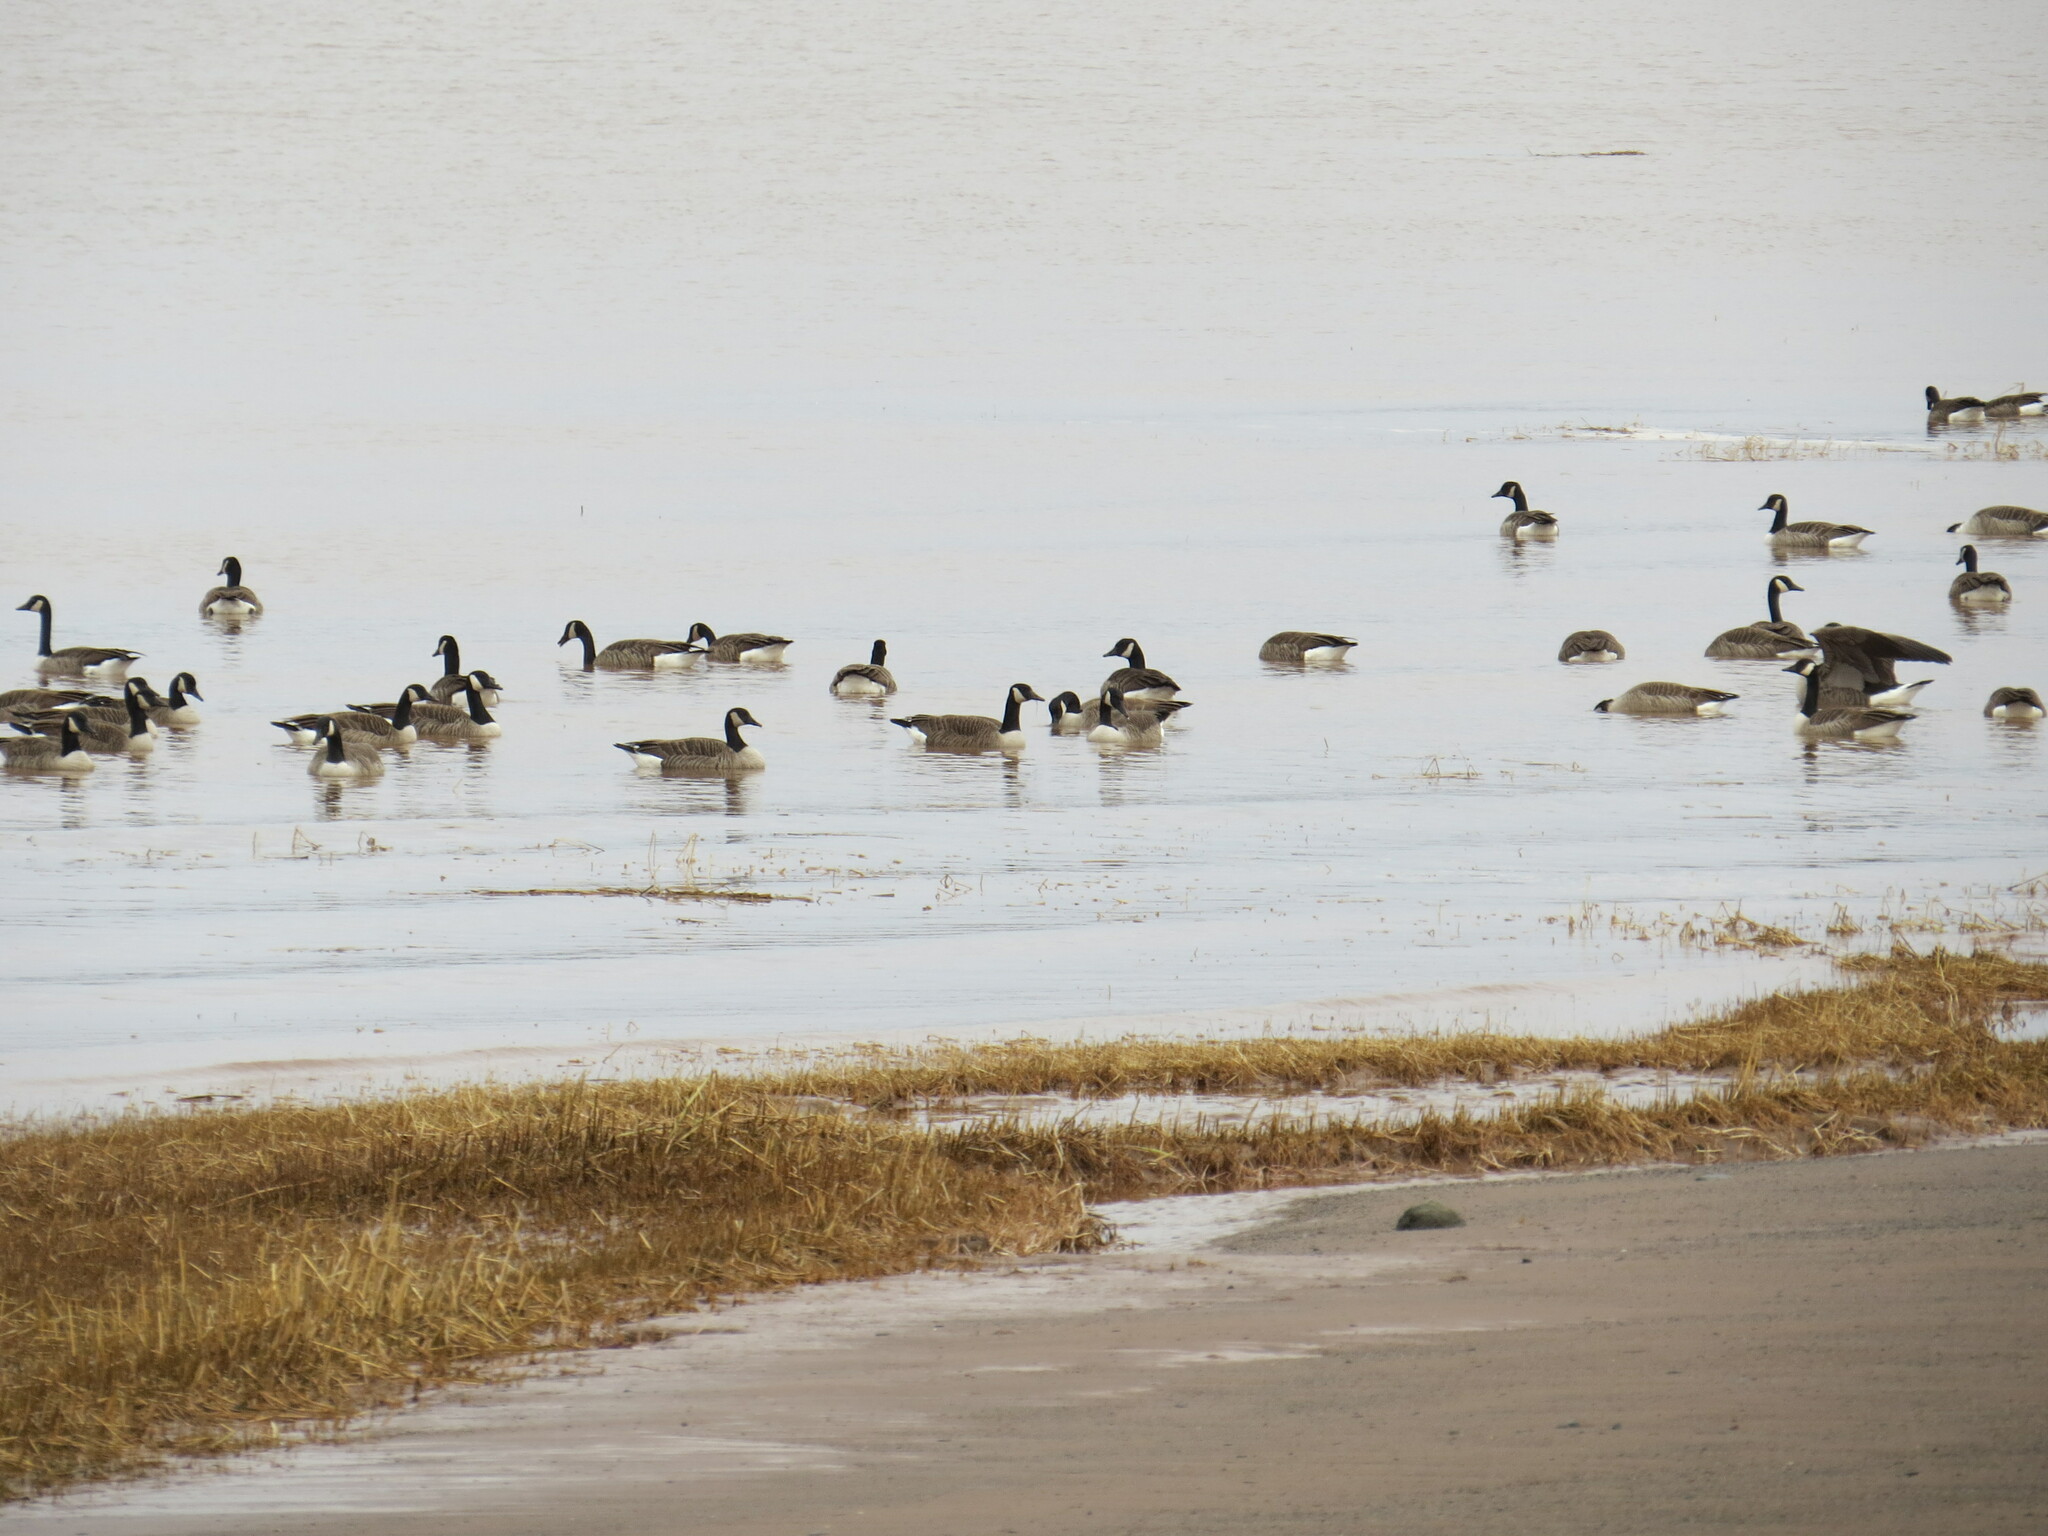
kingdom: Animalia
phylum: Chordata
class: Aves
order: Anseriformes
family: Anatidae
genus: Branta
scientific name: Branta canadensis
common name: Canada goose
